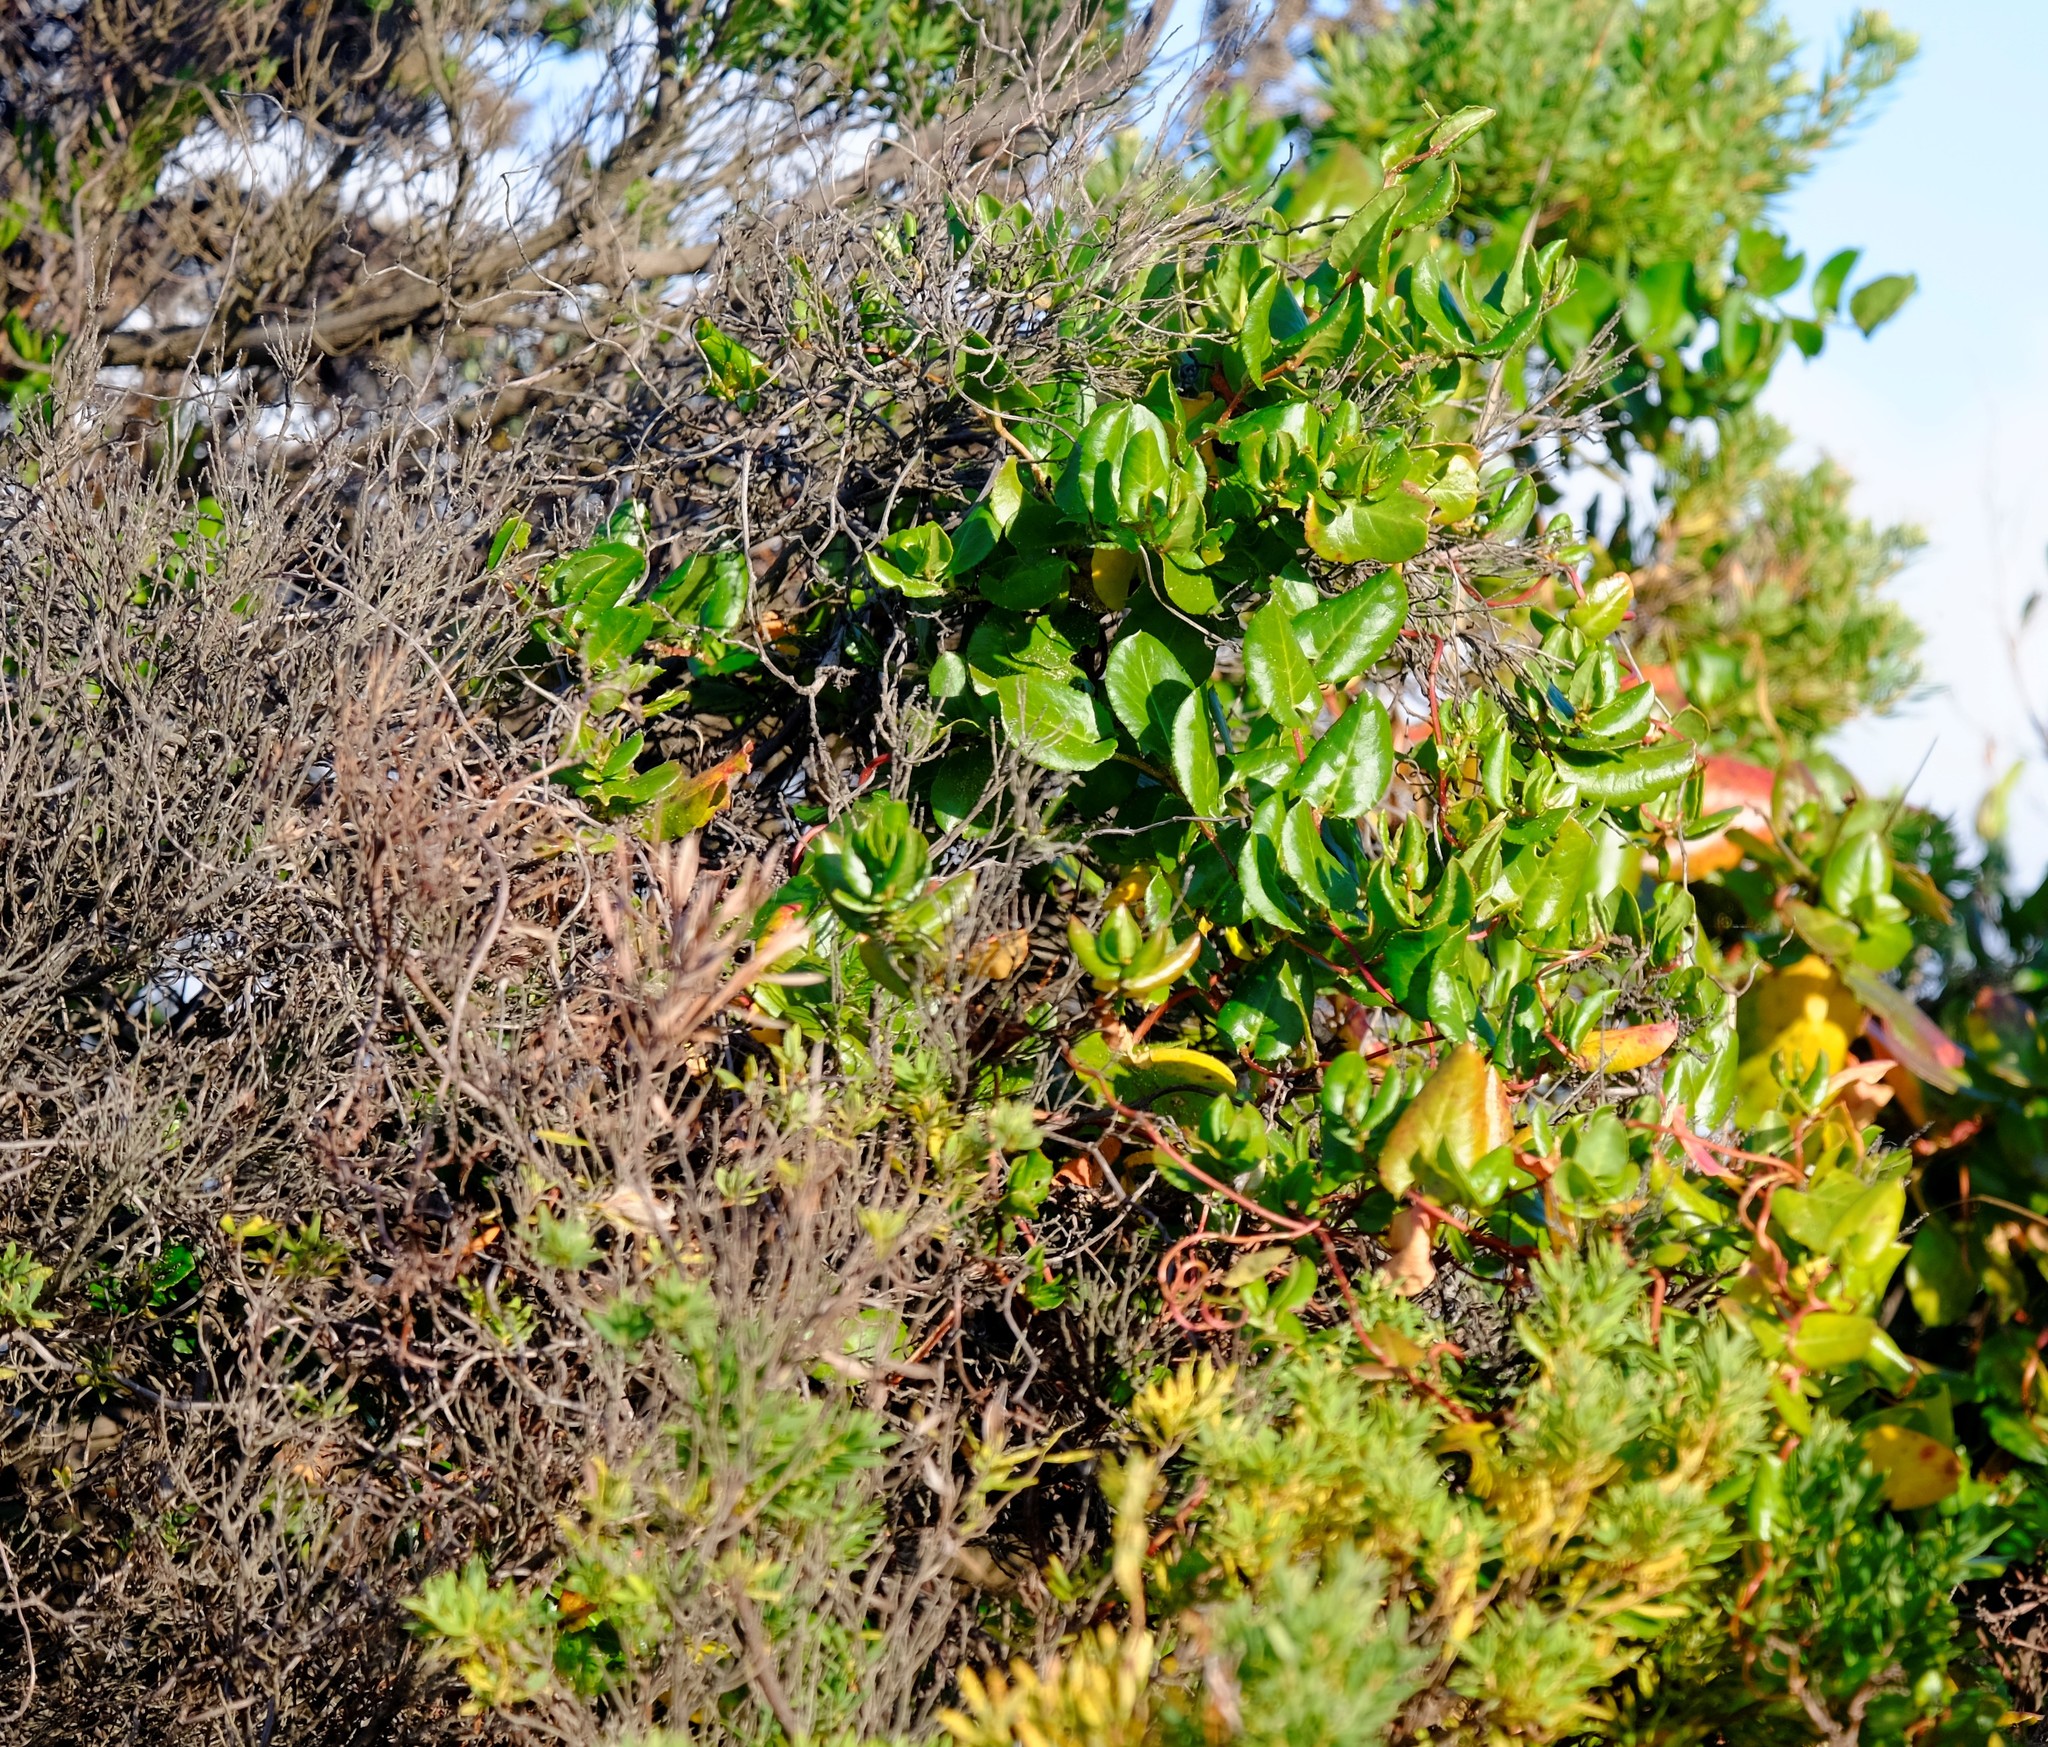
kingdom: Plantae
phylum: Tracheophyta
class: Magnoliopsida
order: Caryophyllales
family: Polygonaceae
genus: Muehlenbeckia
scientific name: Muehlenbeckia adpressa
